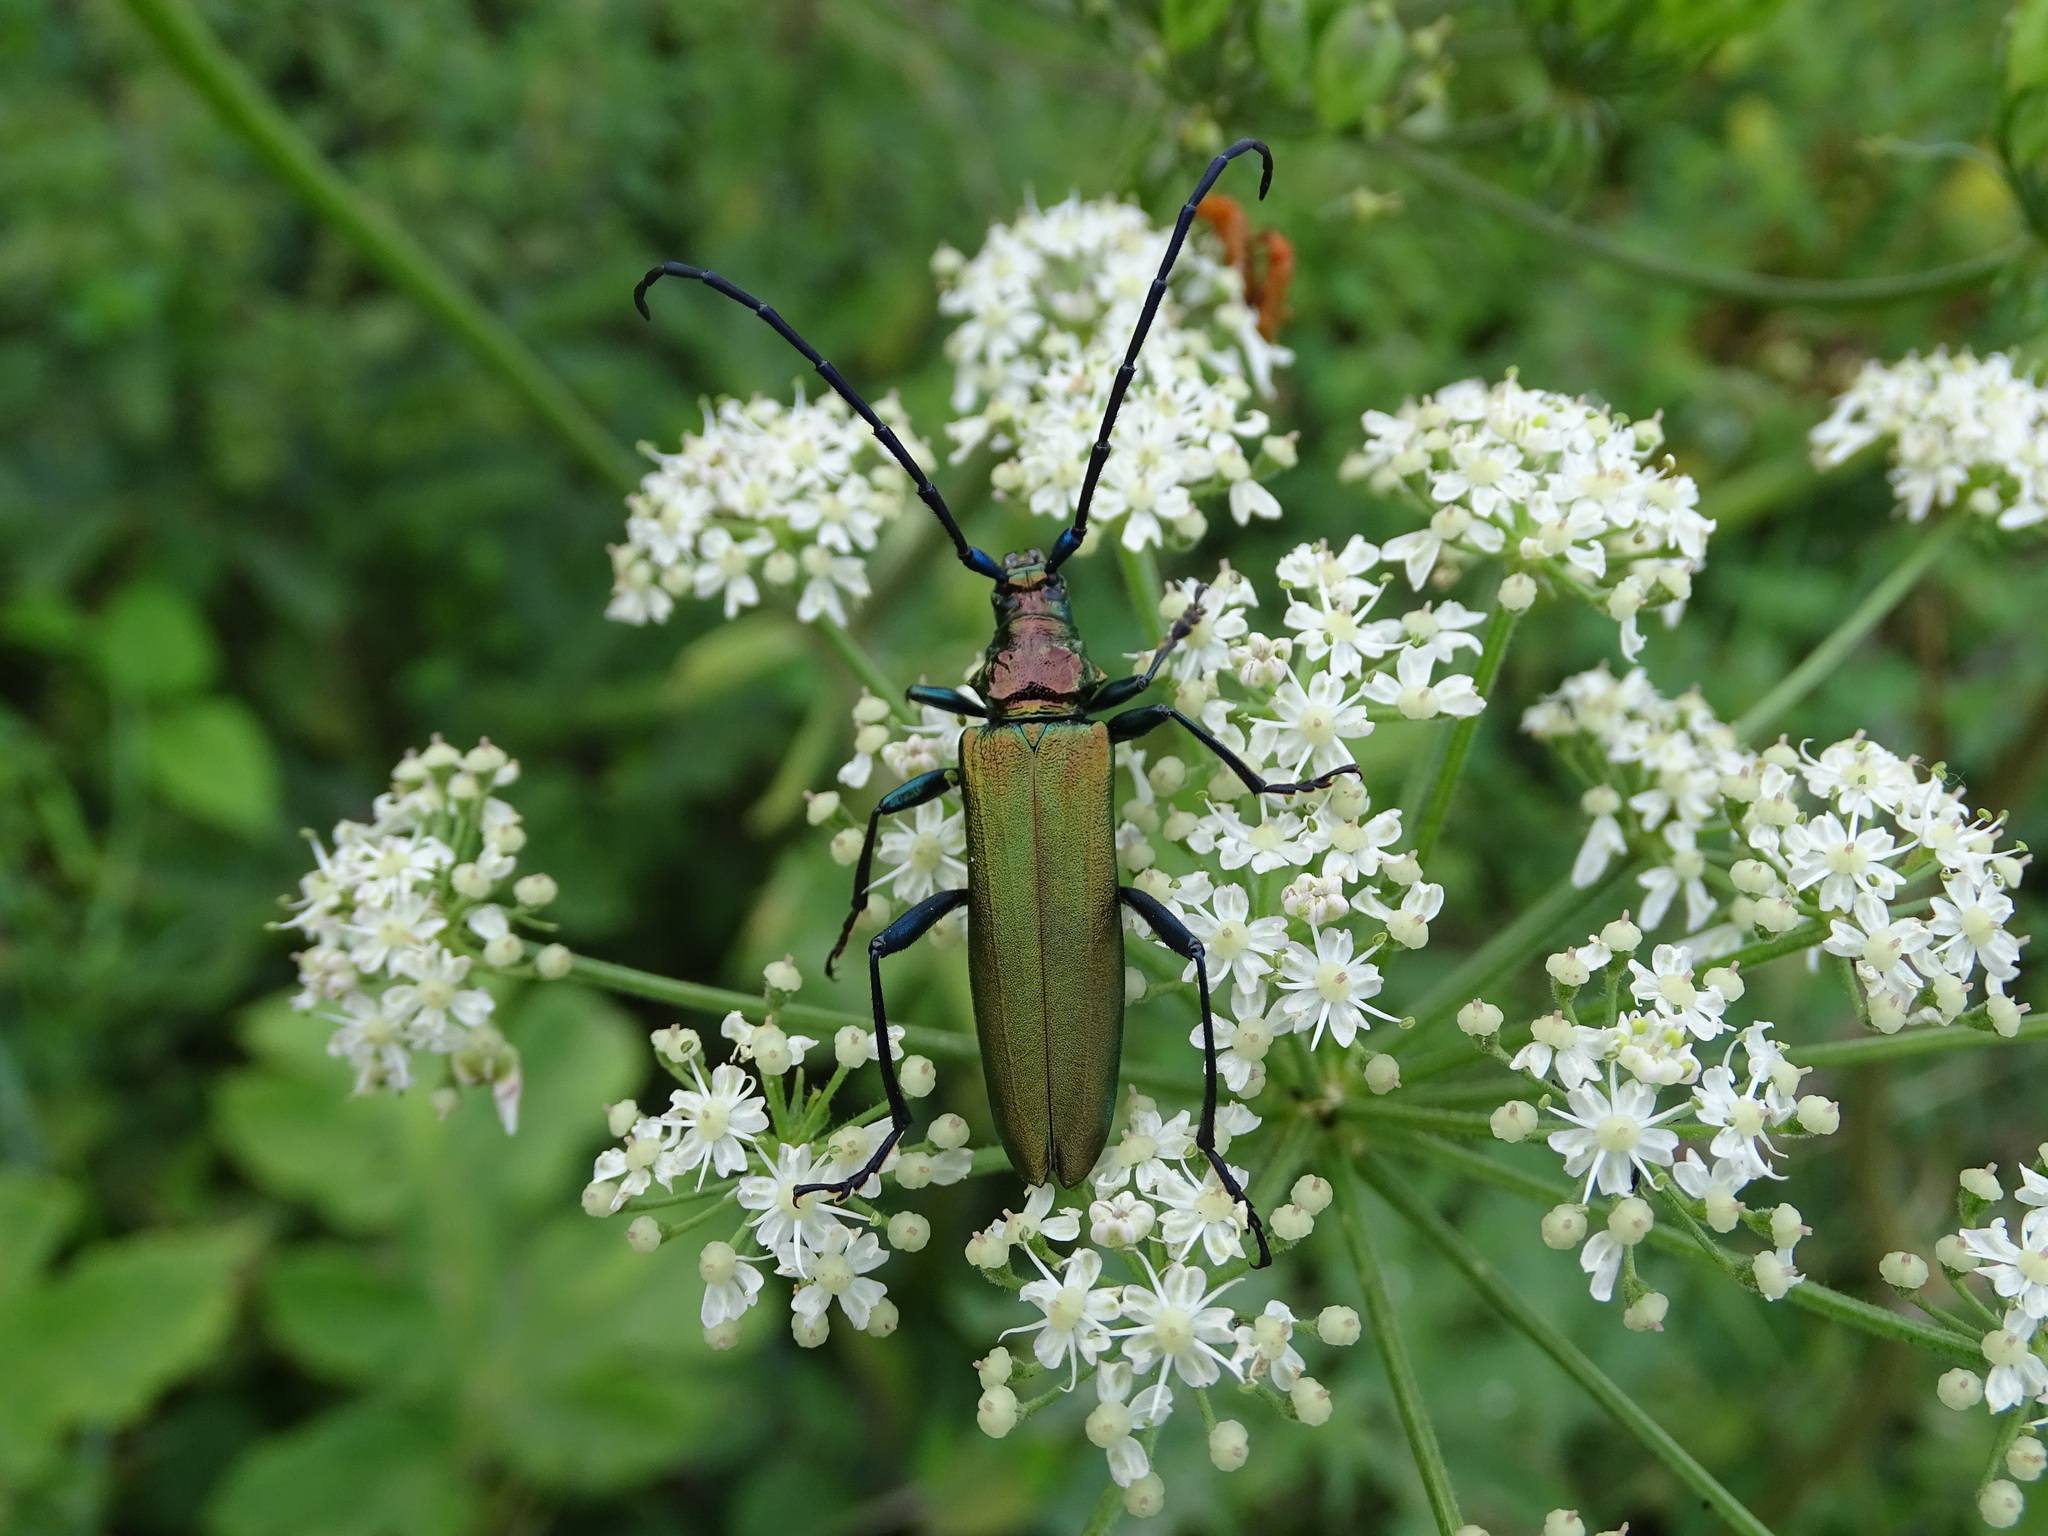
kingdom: Animalia
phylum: Arthropoda
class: Insecta
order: Coleoptera
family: Cerambycidae
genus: Aromia
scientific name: Aromia moschata
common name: Musk beetle
